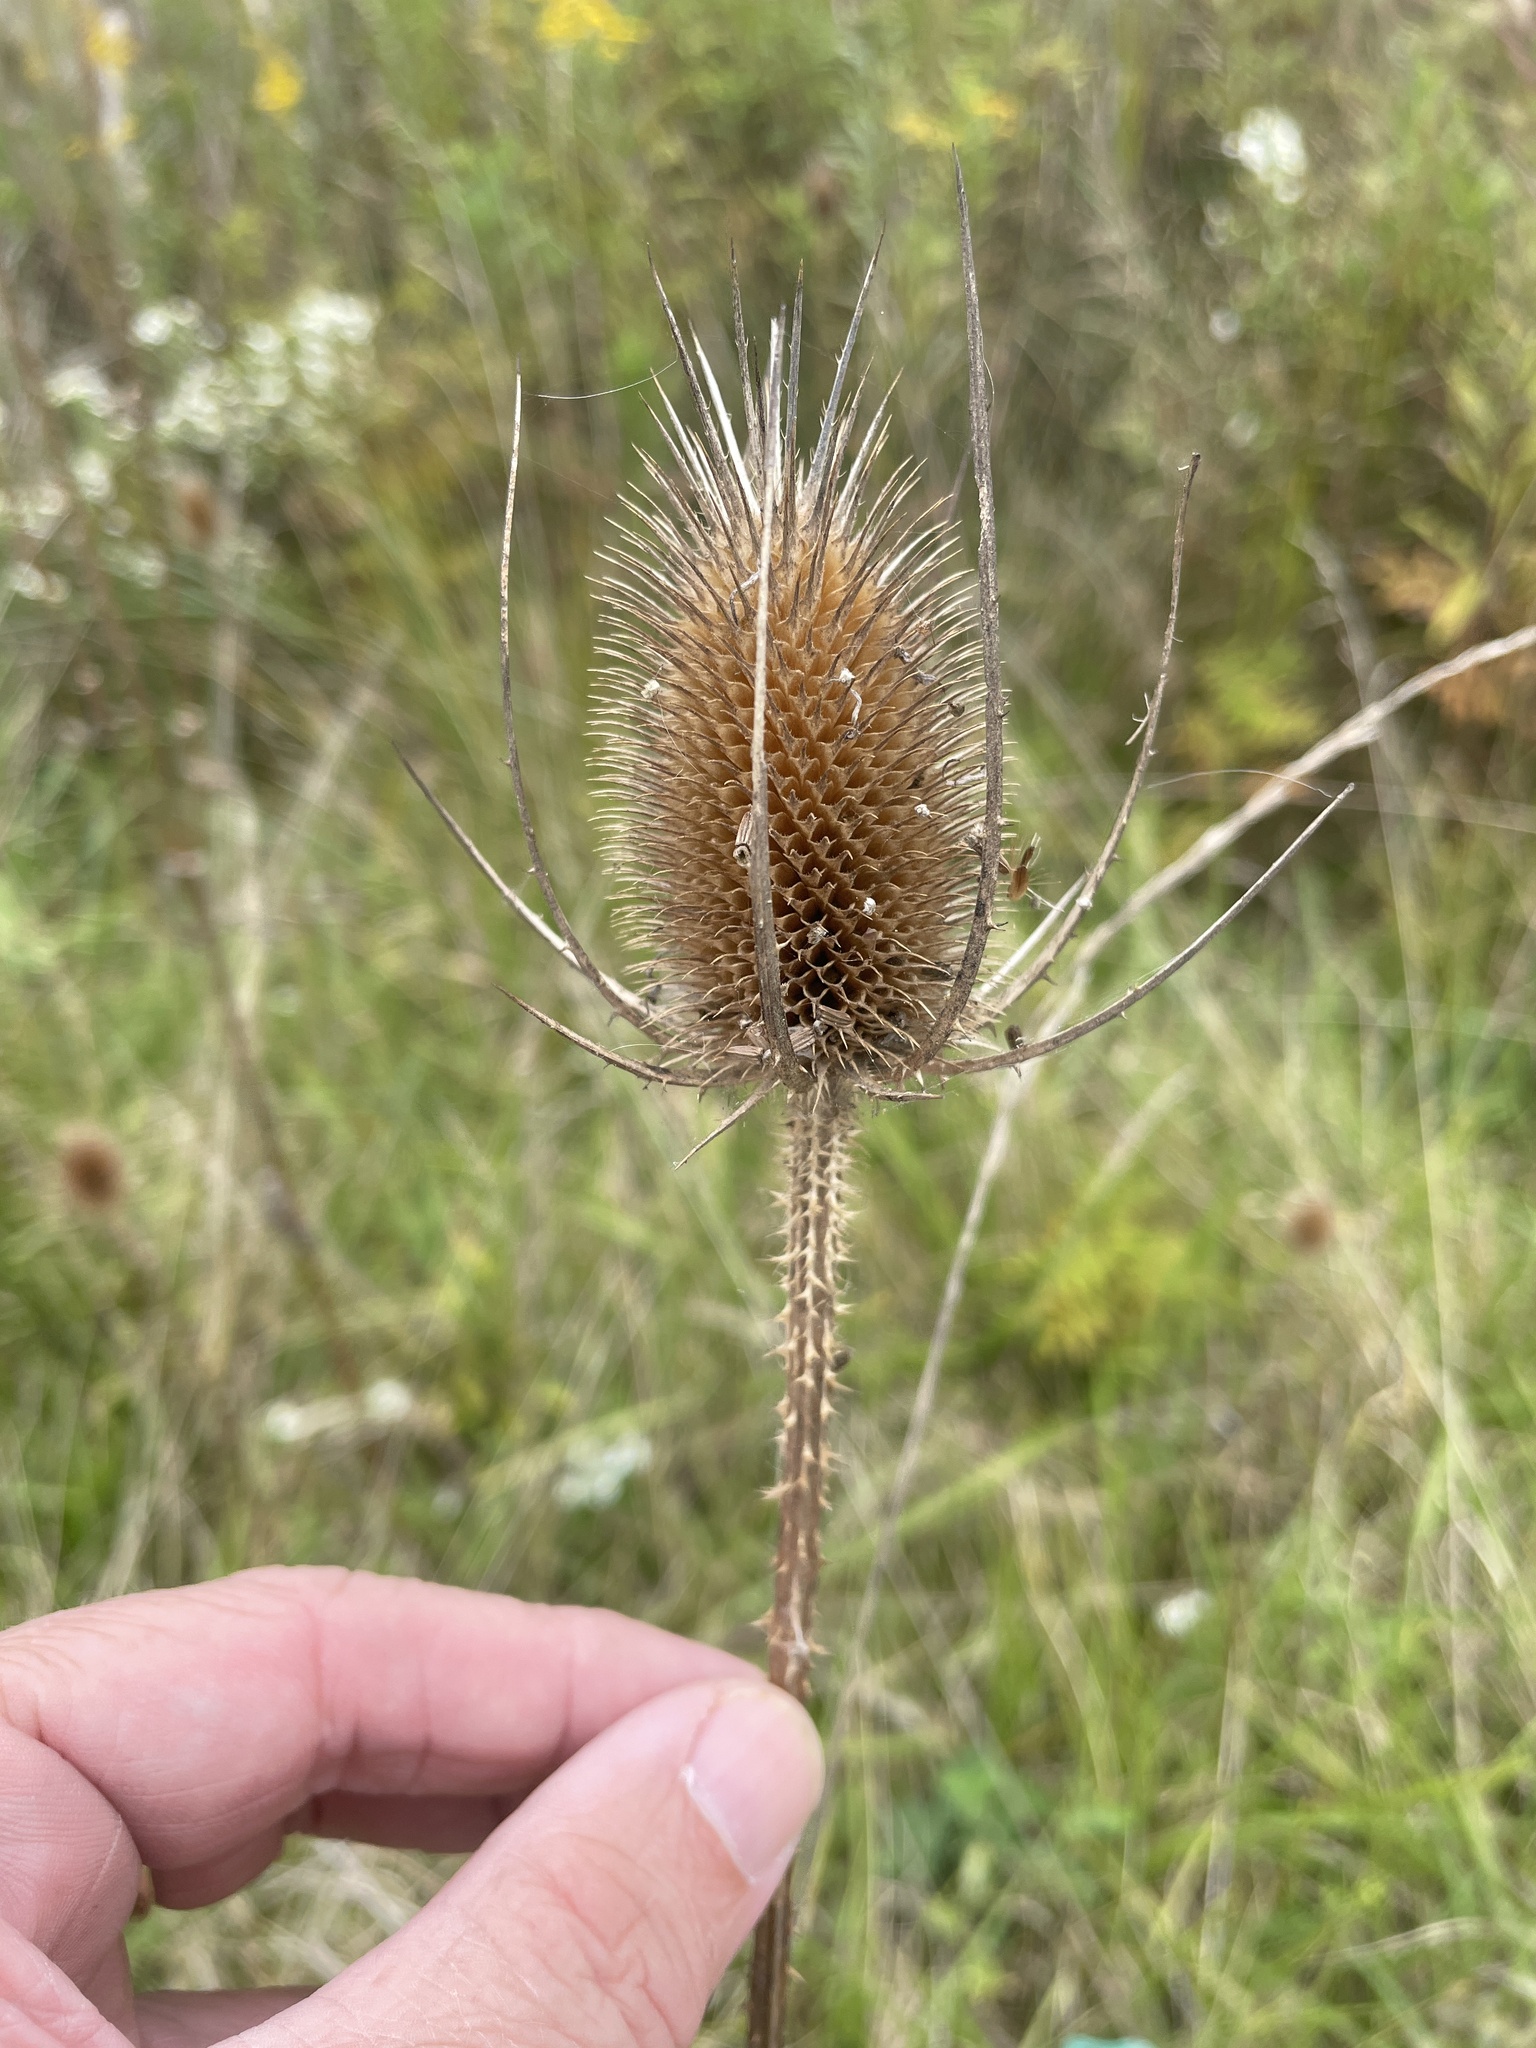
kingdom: Plantae
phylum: Tracheophyta
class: Magnoliopsida
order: Dipsacales
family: Caprifoliaceae
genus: Dipsacus
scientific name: Dipsacus fullonum
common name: Teasel
